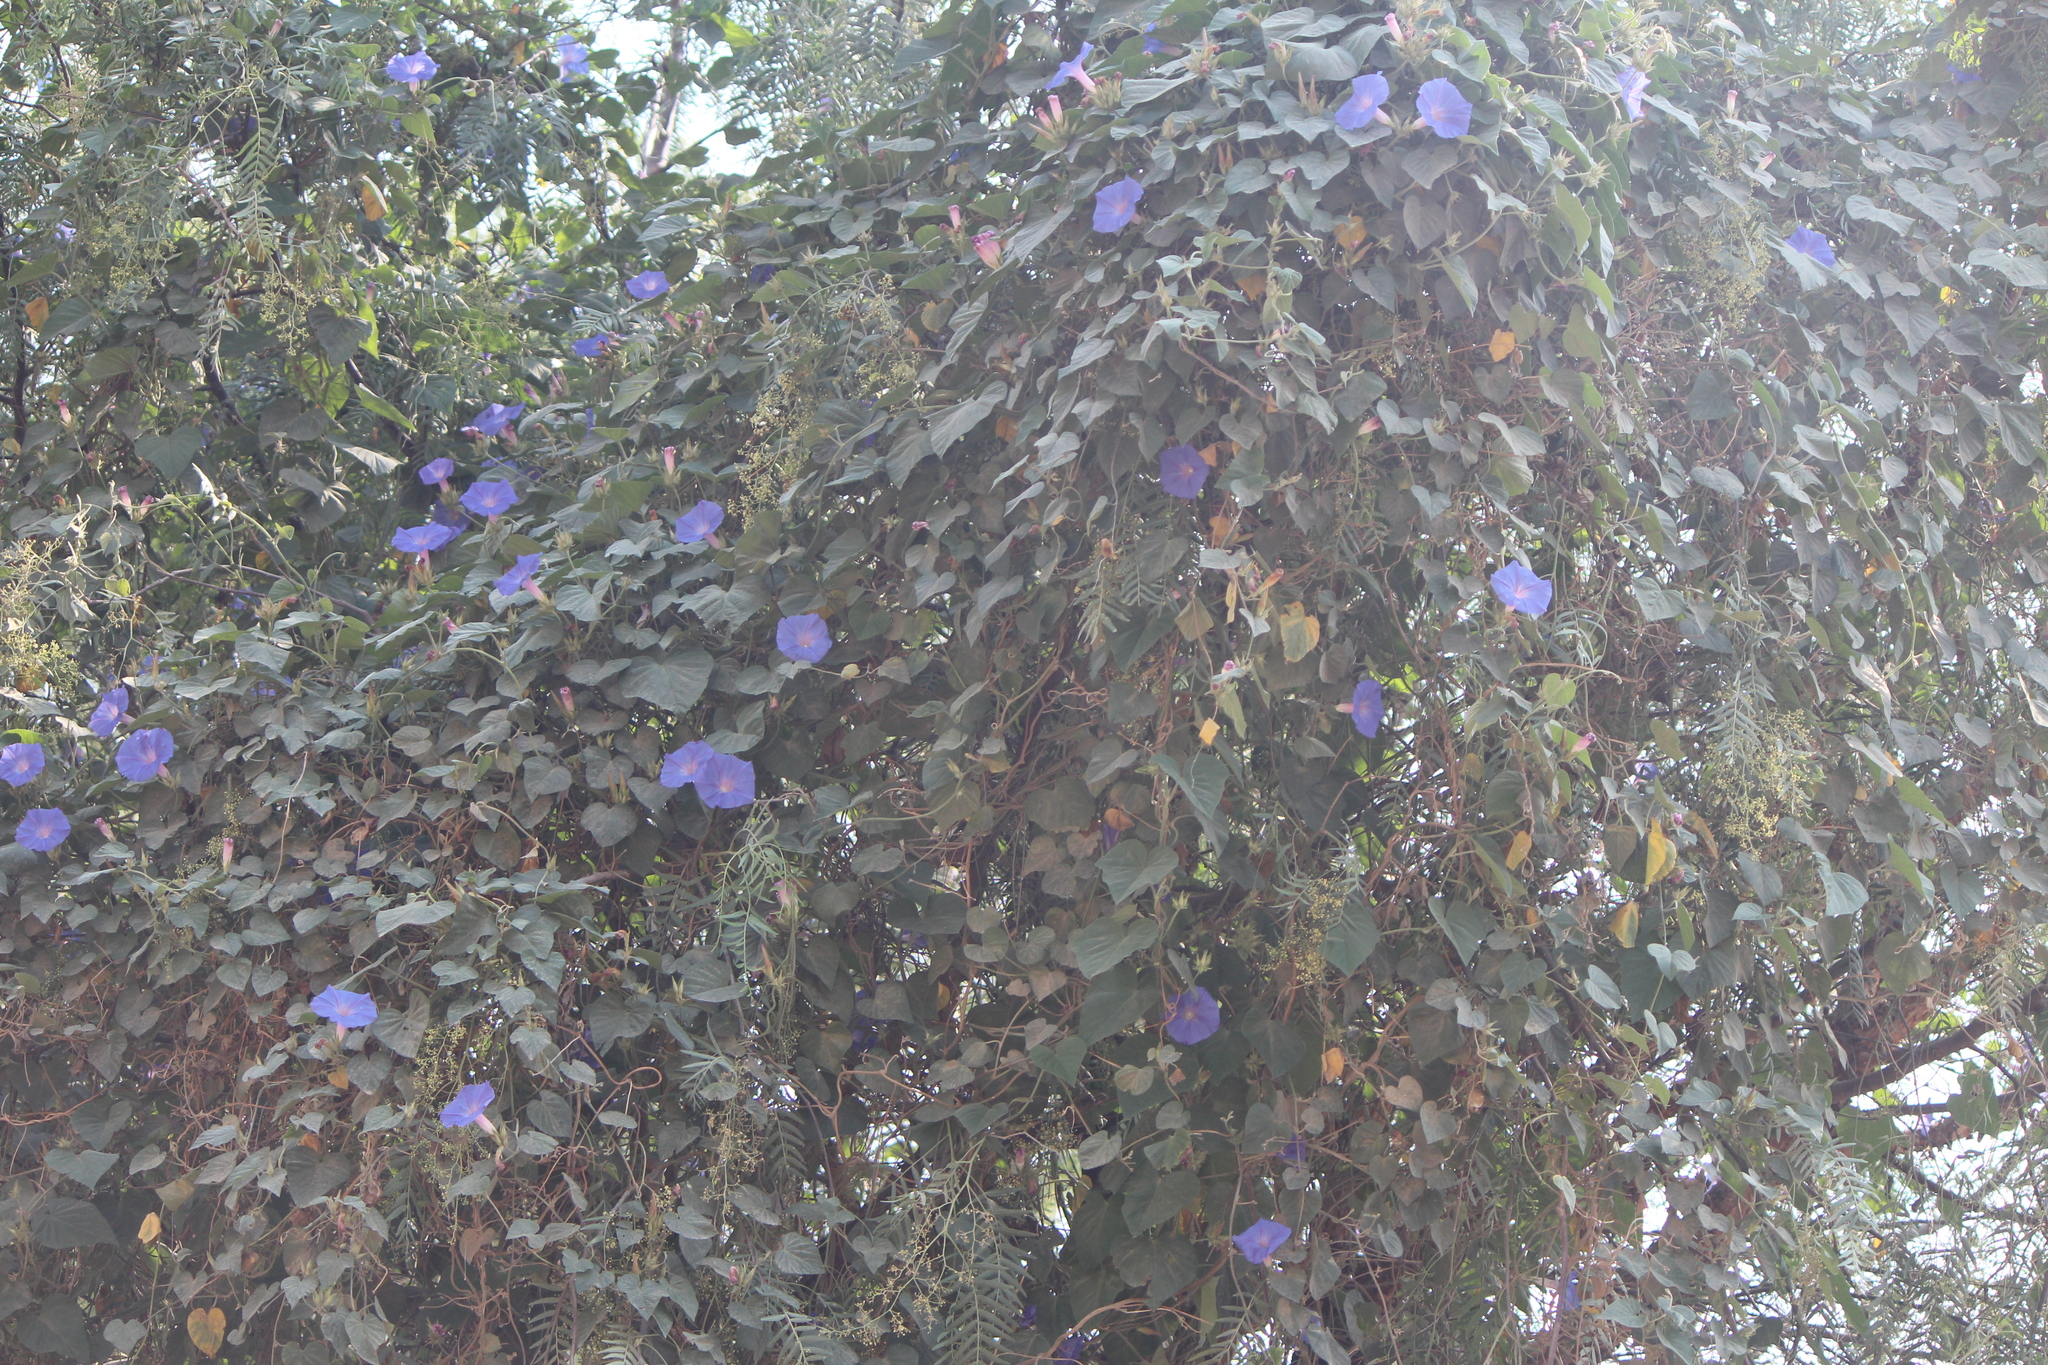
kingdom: Plantae
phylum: Tracheophyta
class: Magnoliopsida
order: Solanales
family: Convolvulaceae
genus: Ipomoea
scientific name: Ipomoea indica
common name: Blue dawnflower
